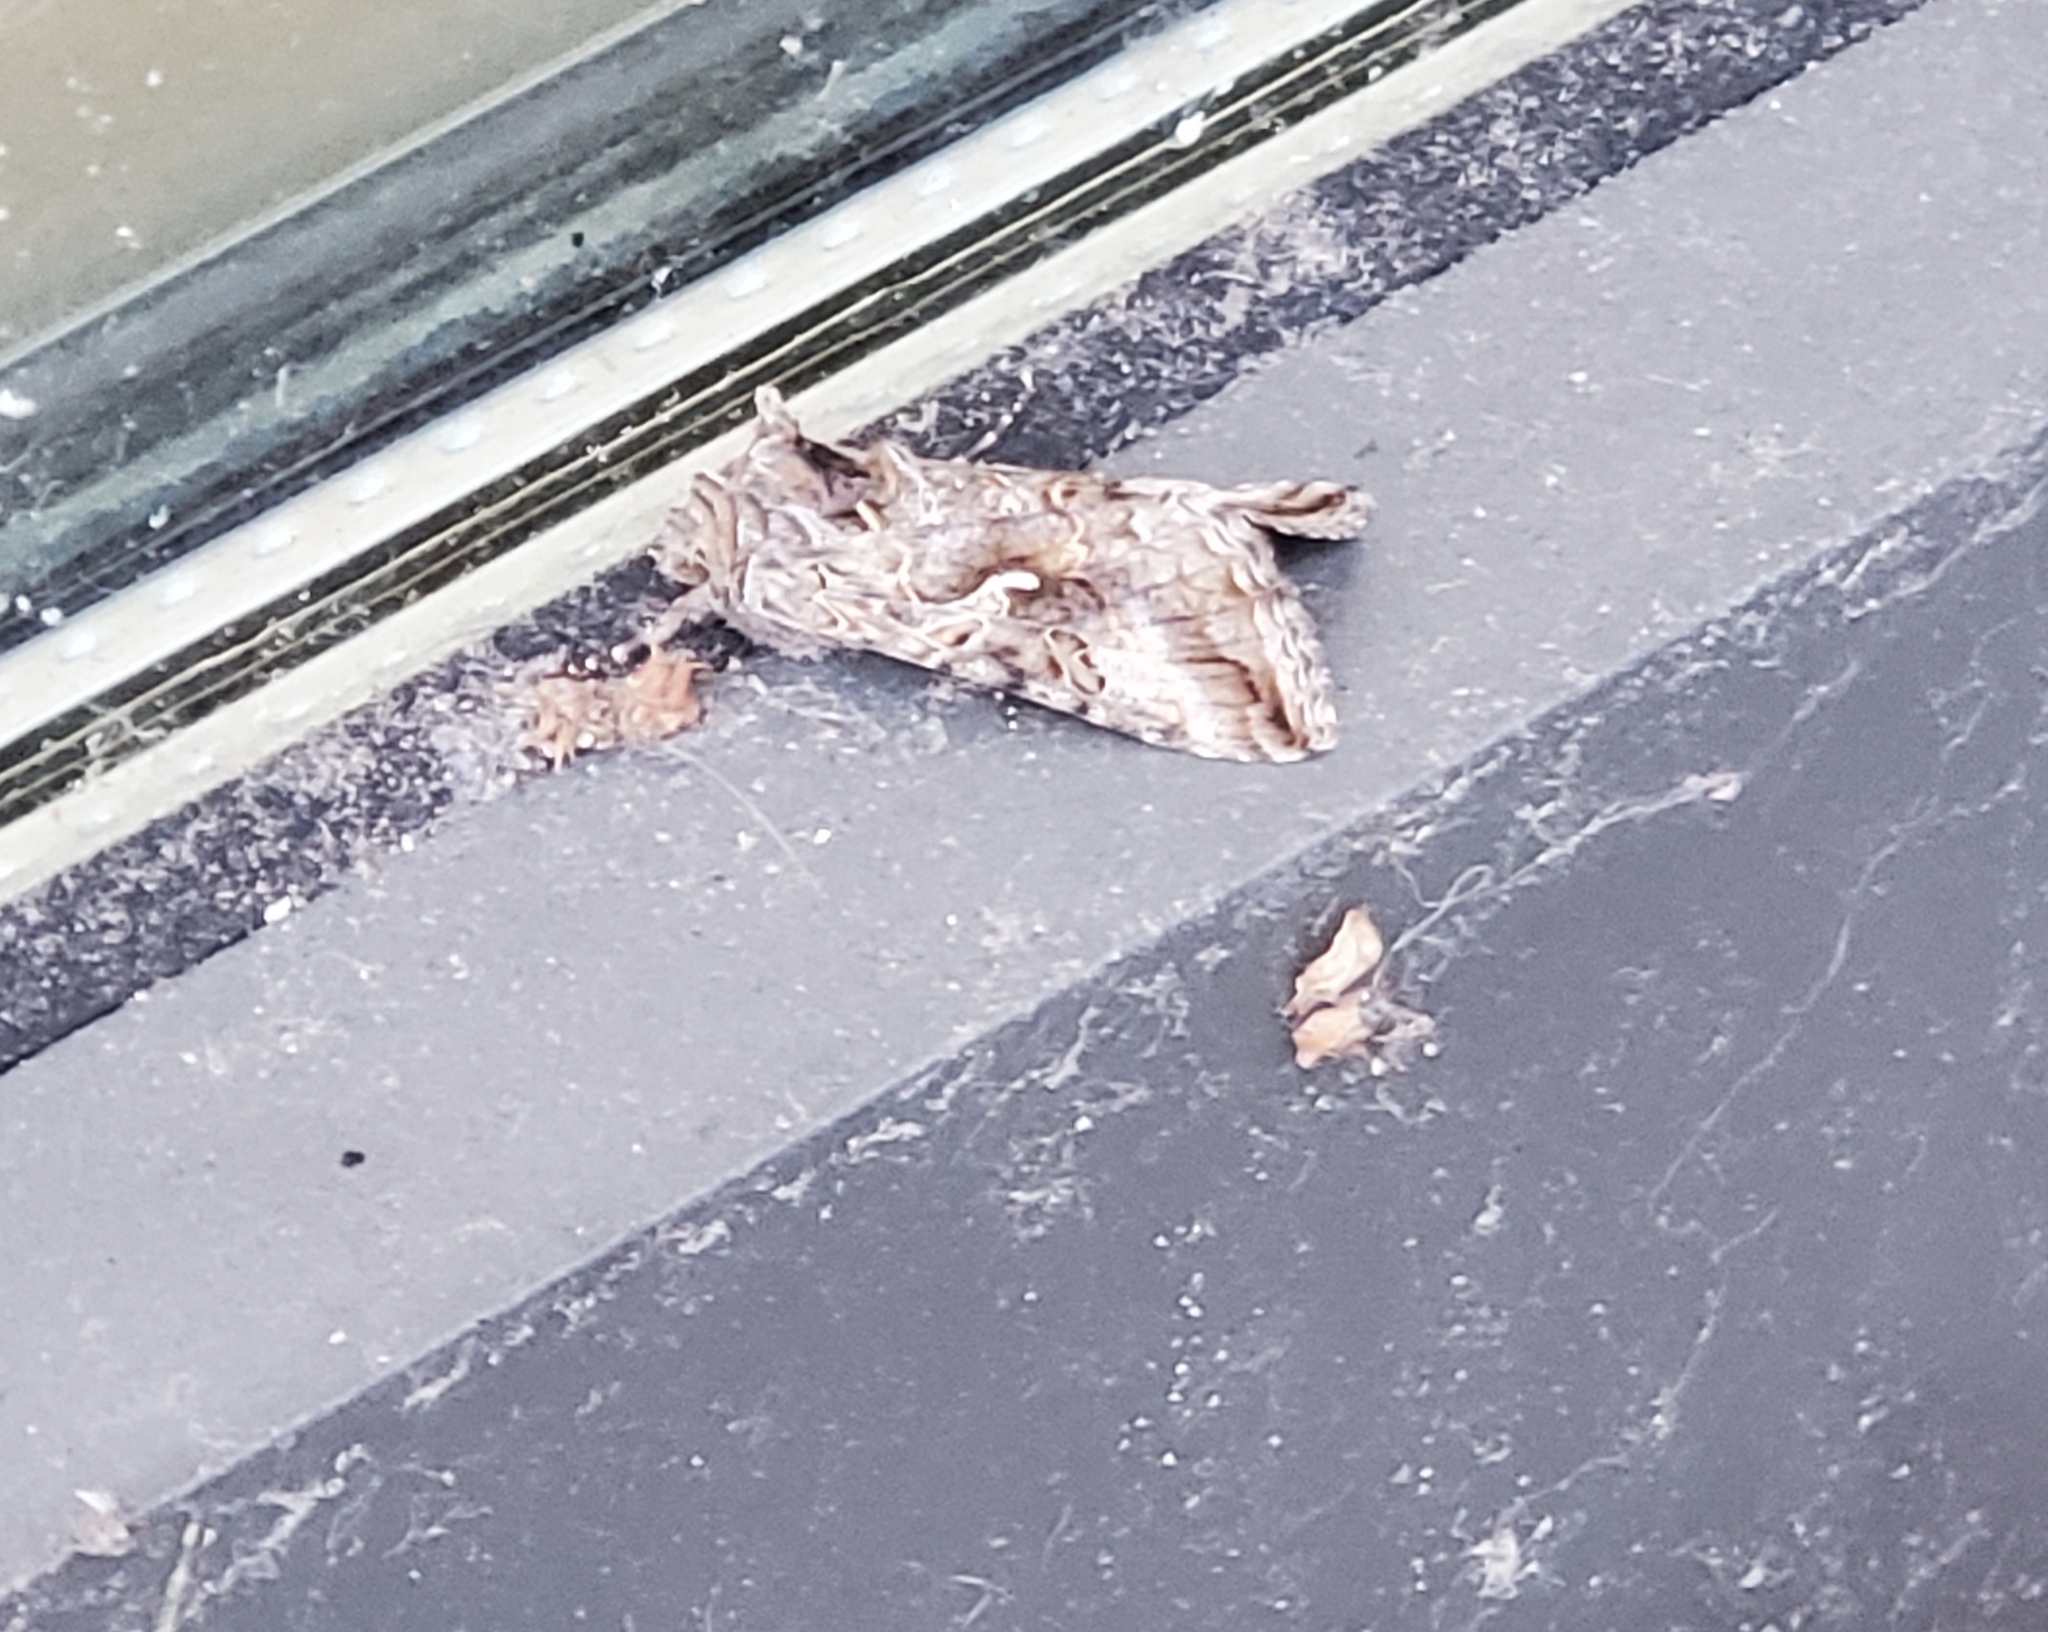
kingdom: Animalia
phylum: Arthropoda
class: Insecta
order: Lepidoptera
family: Noctuidae
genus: Autographa
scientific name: Autographa californica
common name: Alfalfa looper
